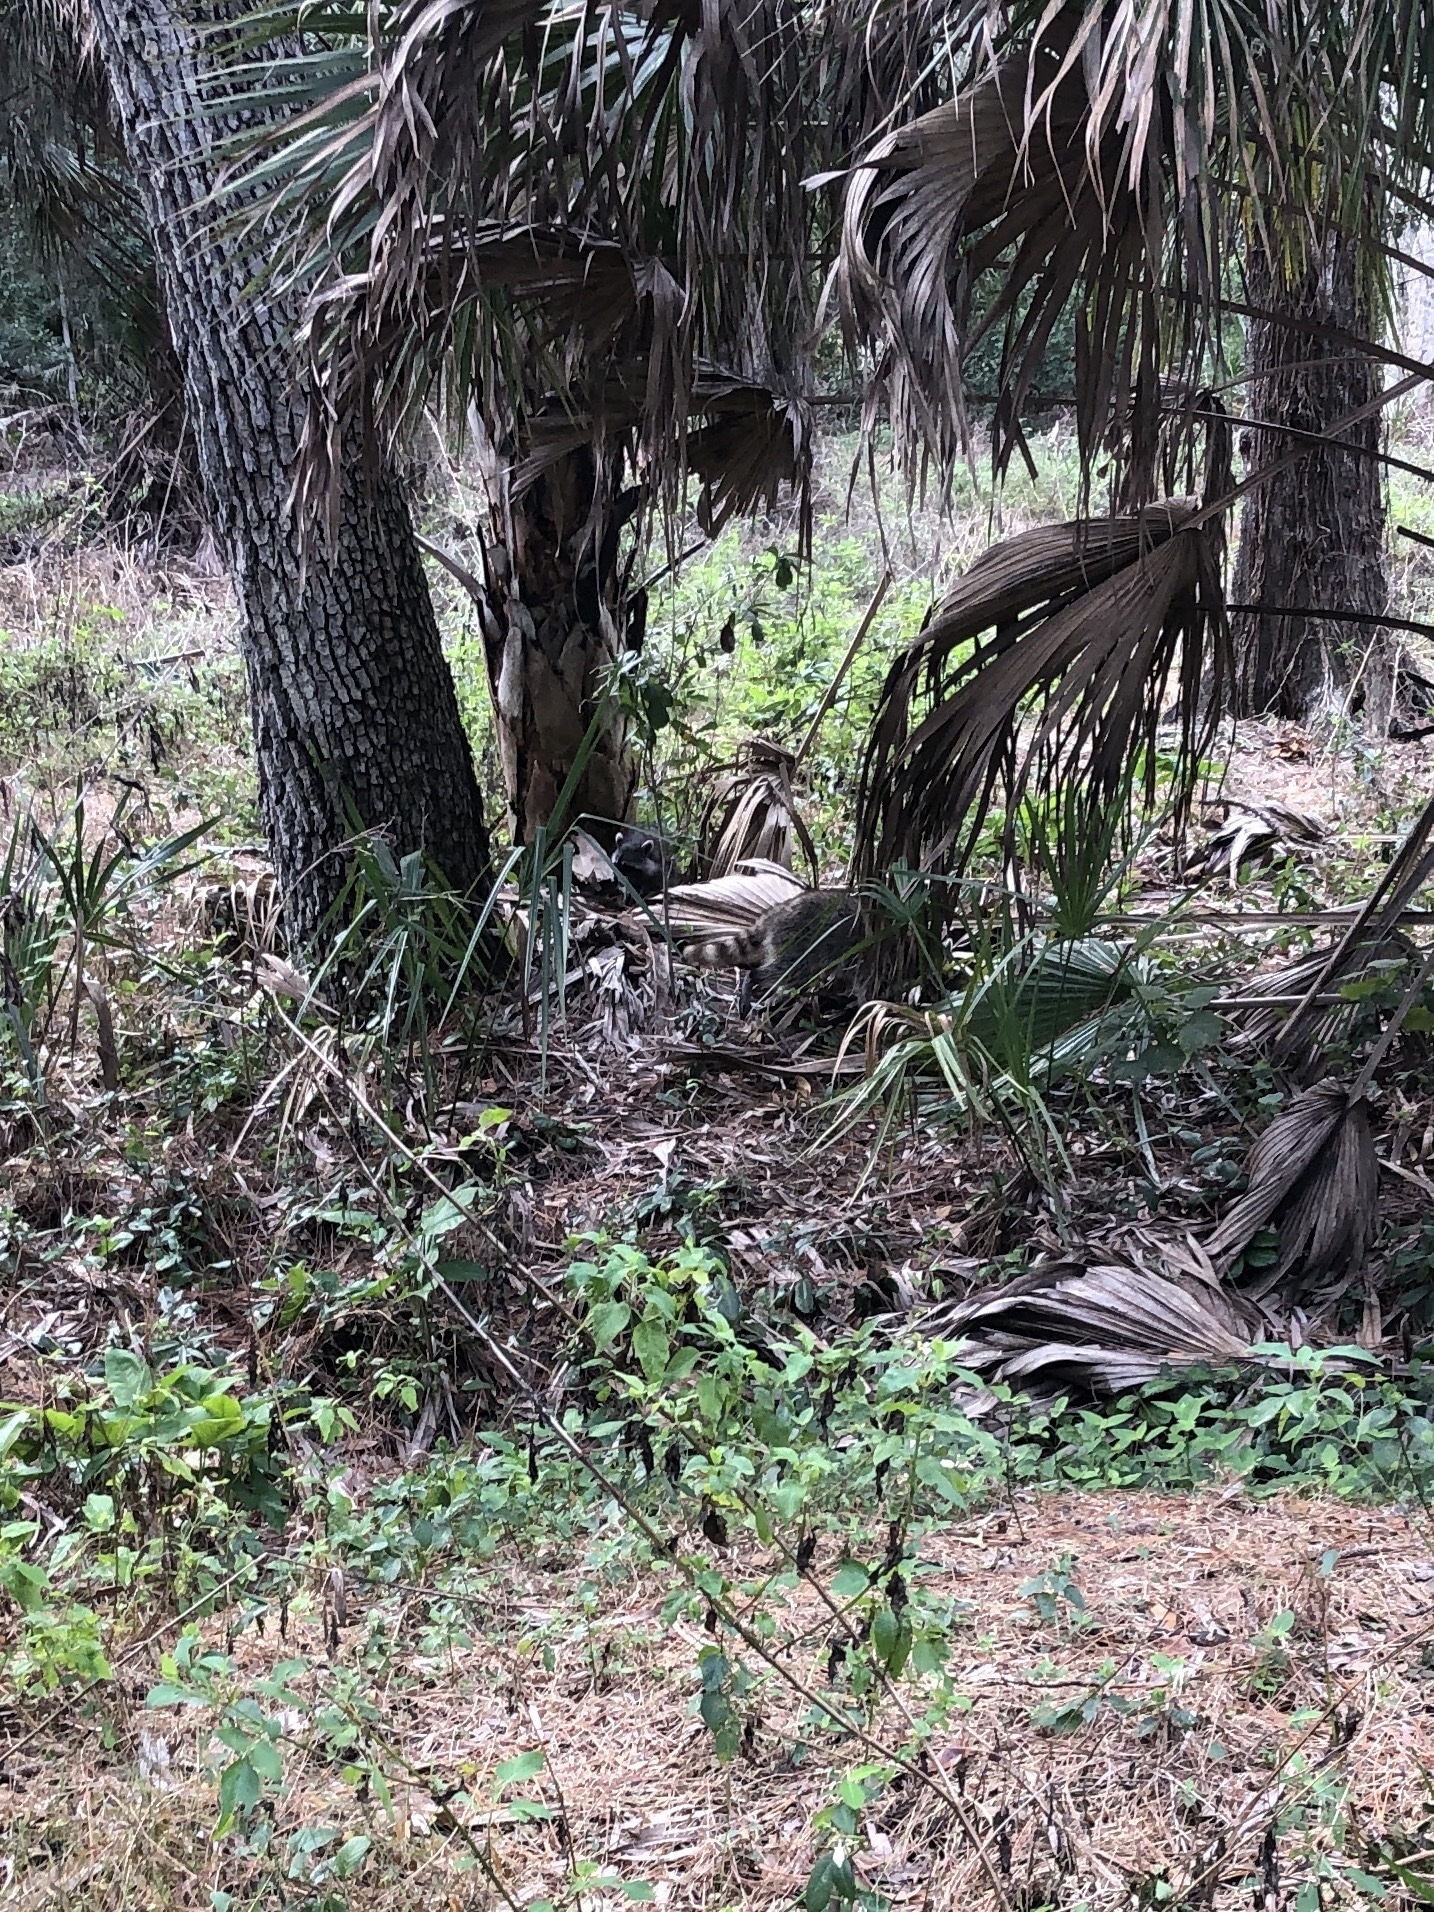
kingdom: Animalia
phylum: Chordata
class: Mammalia
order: Carnivora
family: Procyonidae
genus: Procyon
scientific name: Procyon lotor
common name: Raccoon
